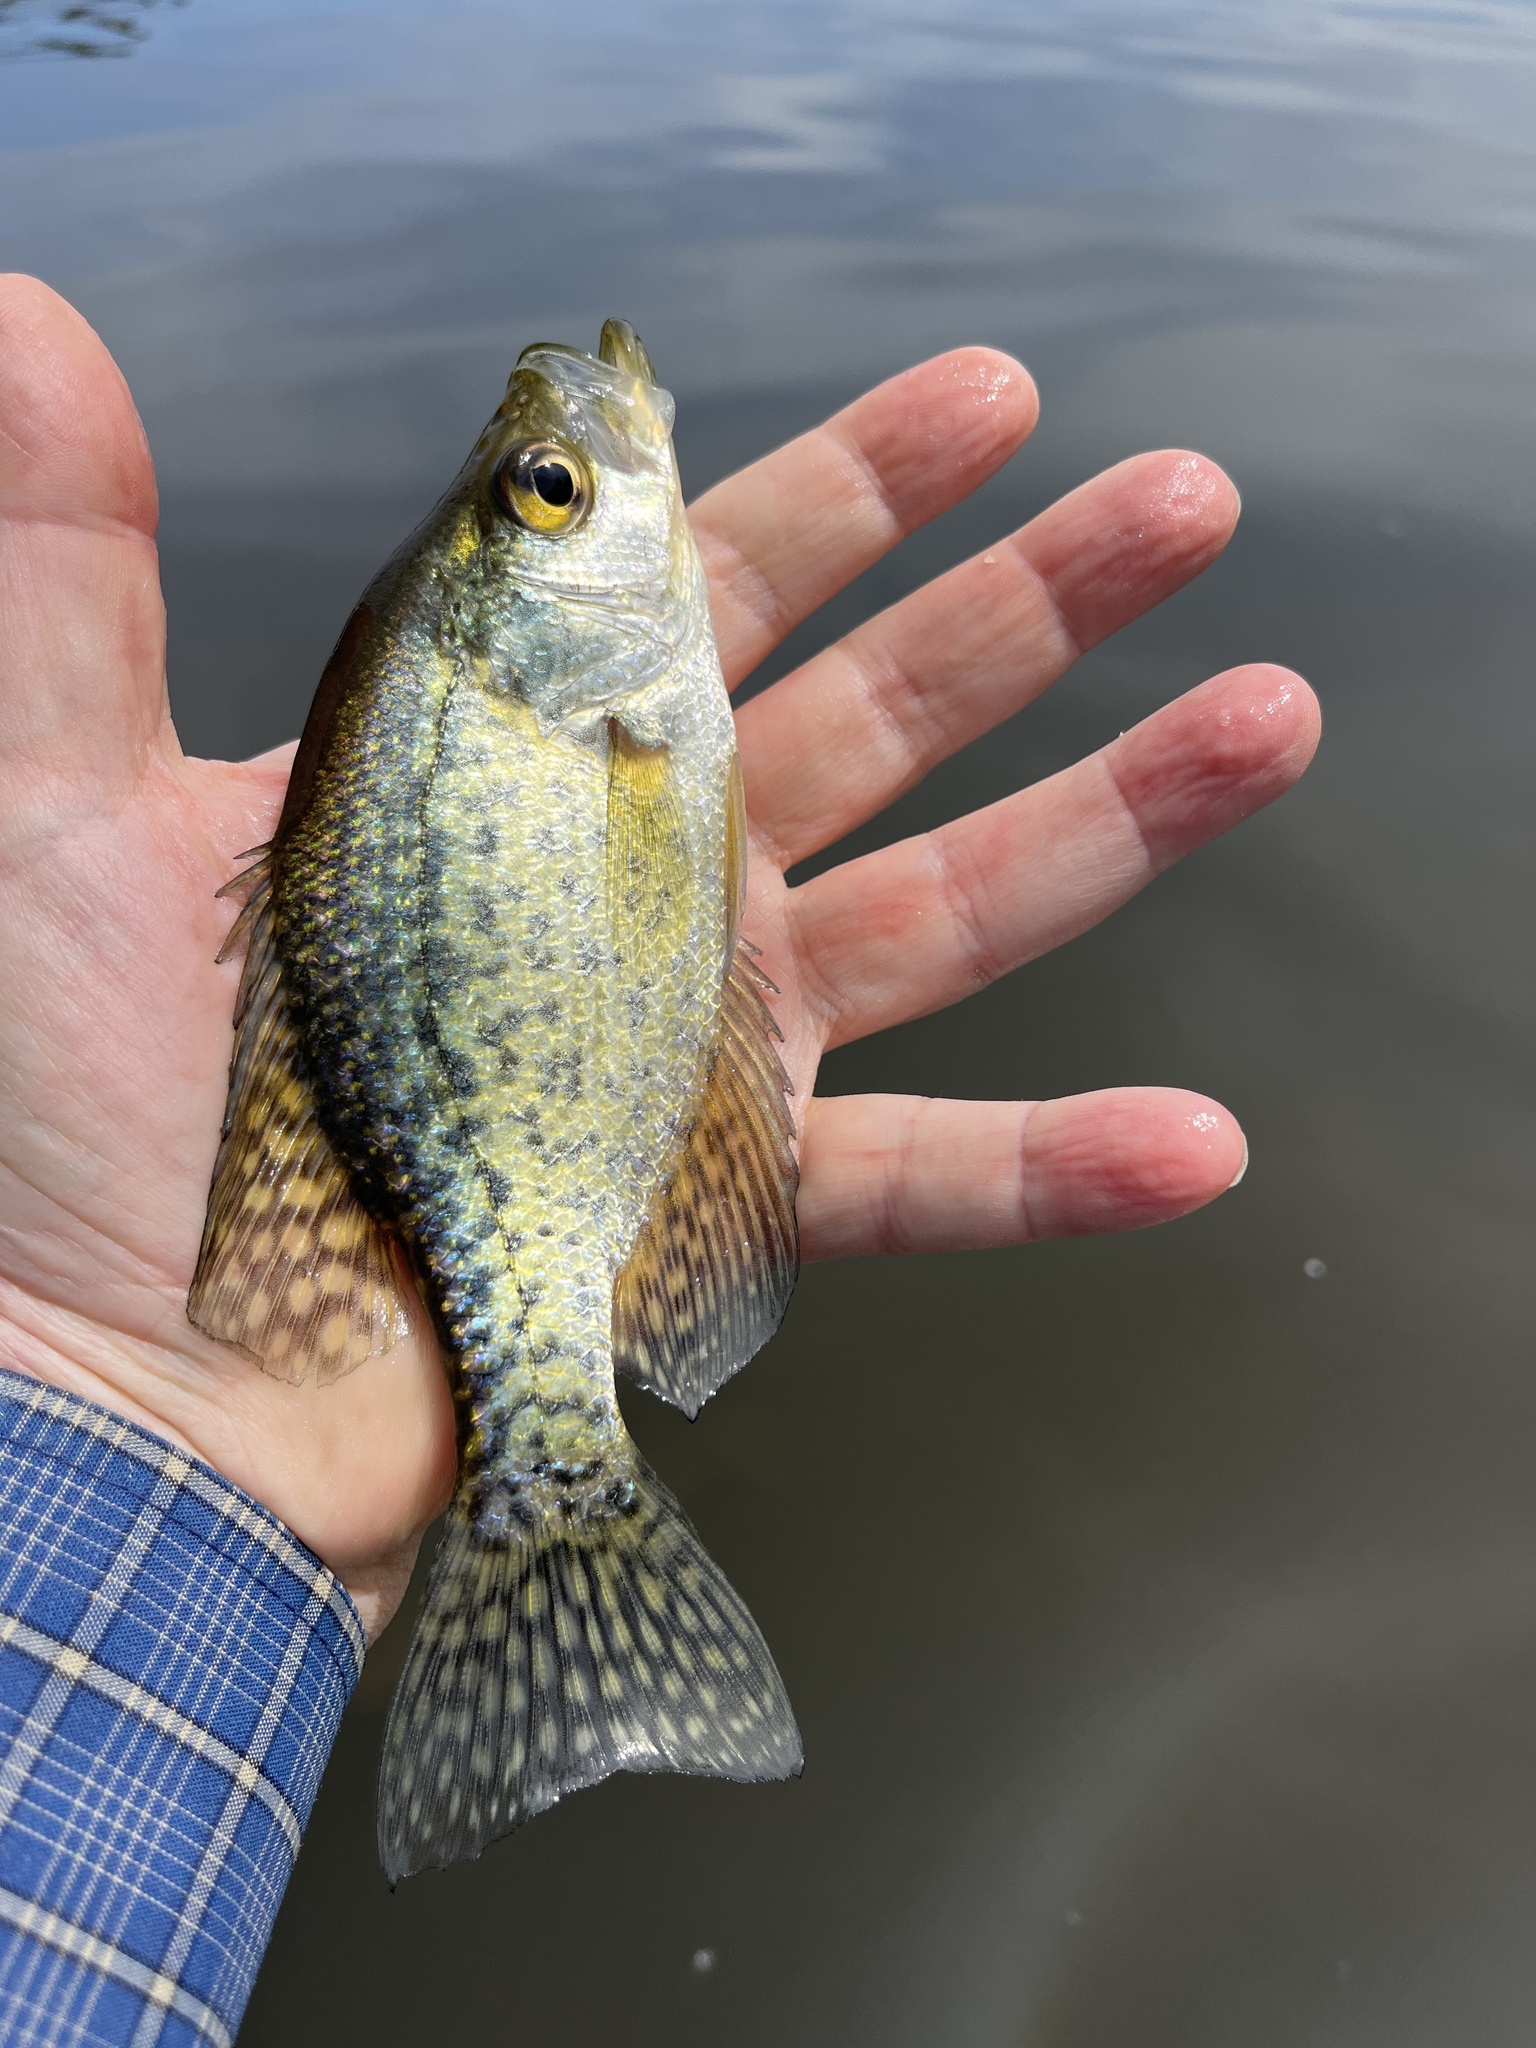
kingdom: Animalia
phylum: Chordata
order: Perciformes
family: Centrarchidae
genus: Pomoxis
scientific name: Pomoxis nigromaculatus
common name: Black crappie
